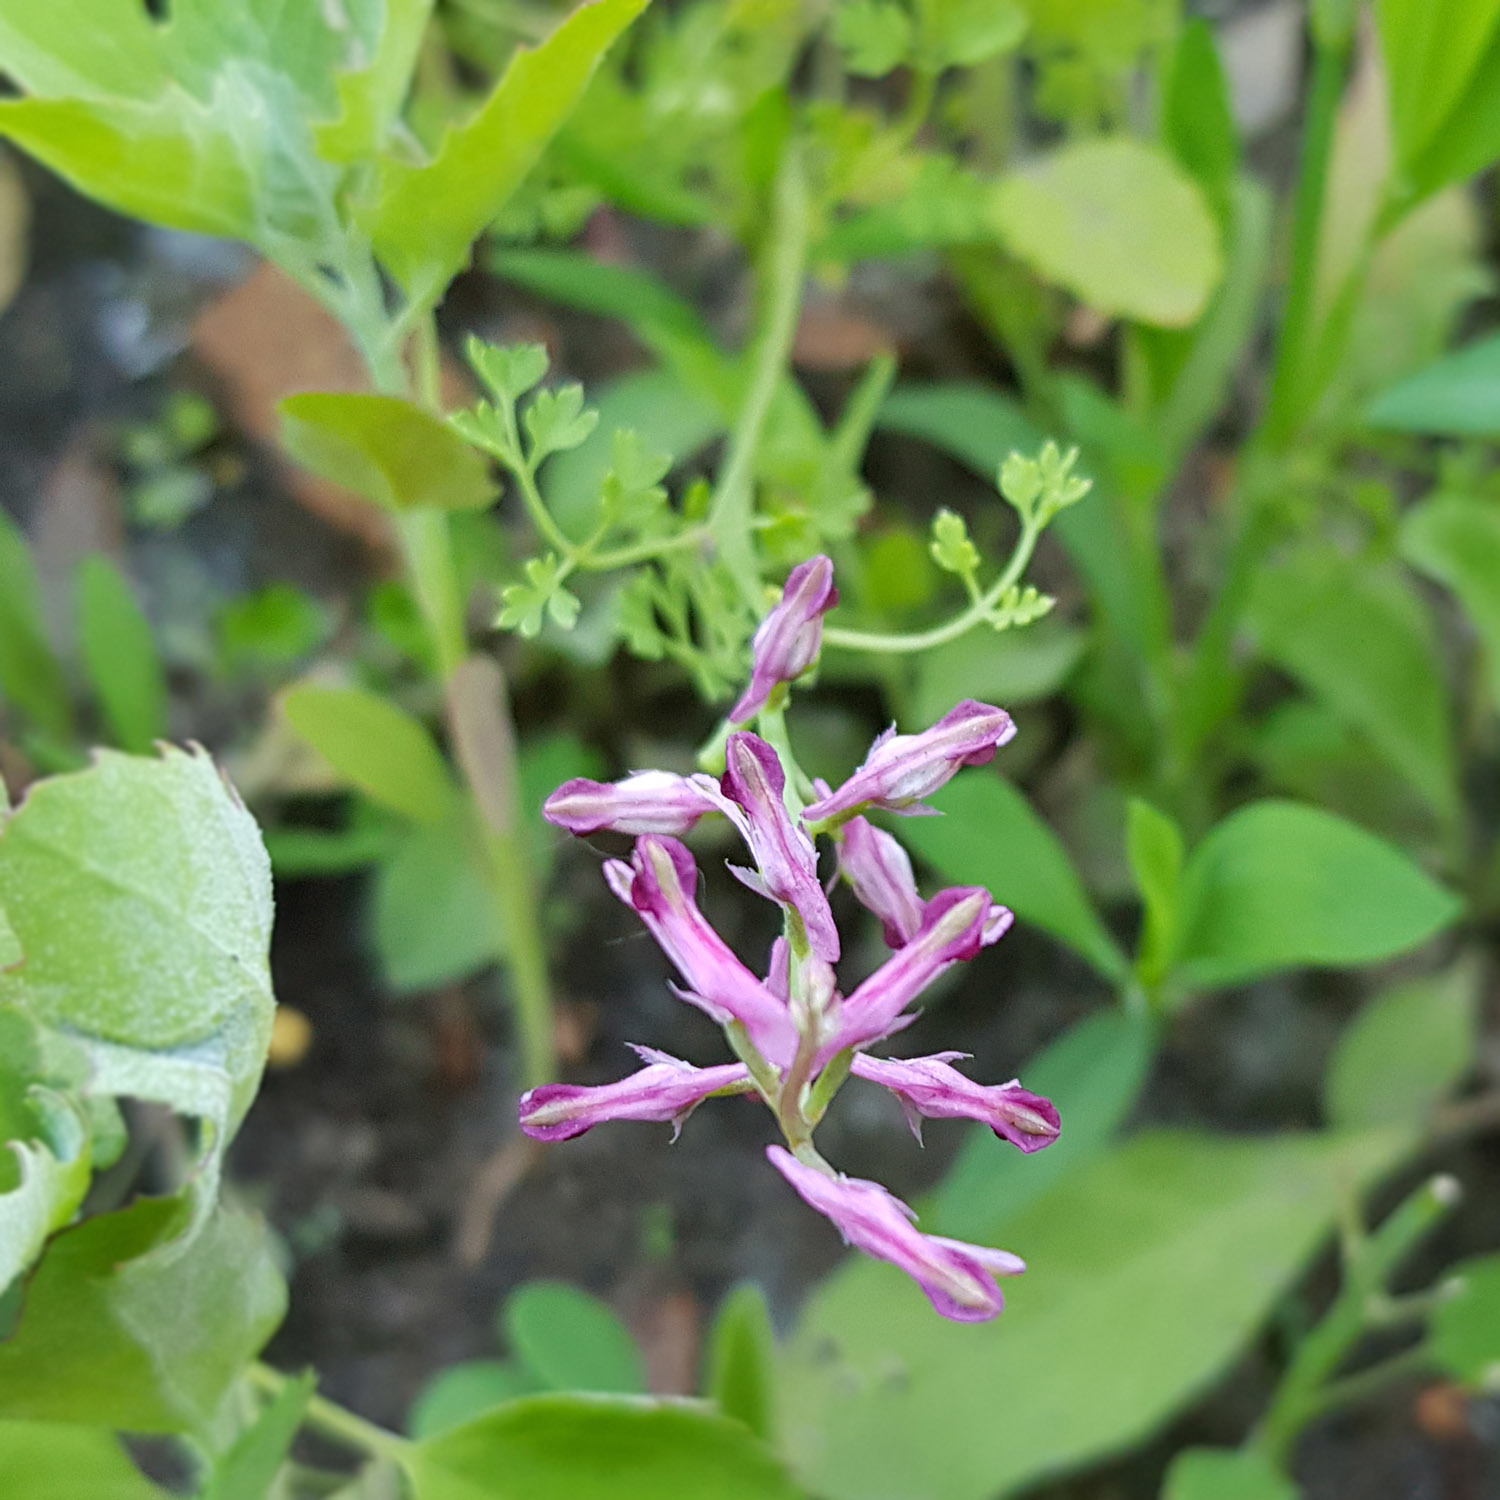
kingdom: Plantae
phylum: Tracheophyta
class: Magnoliopsida
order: Ranunculales
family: Papaveraceae
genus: Fumaria
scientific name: Fumaria officinalis
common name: Common fumitory
